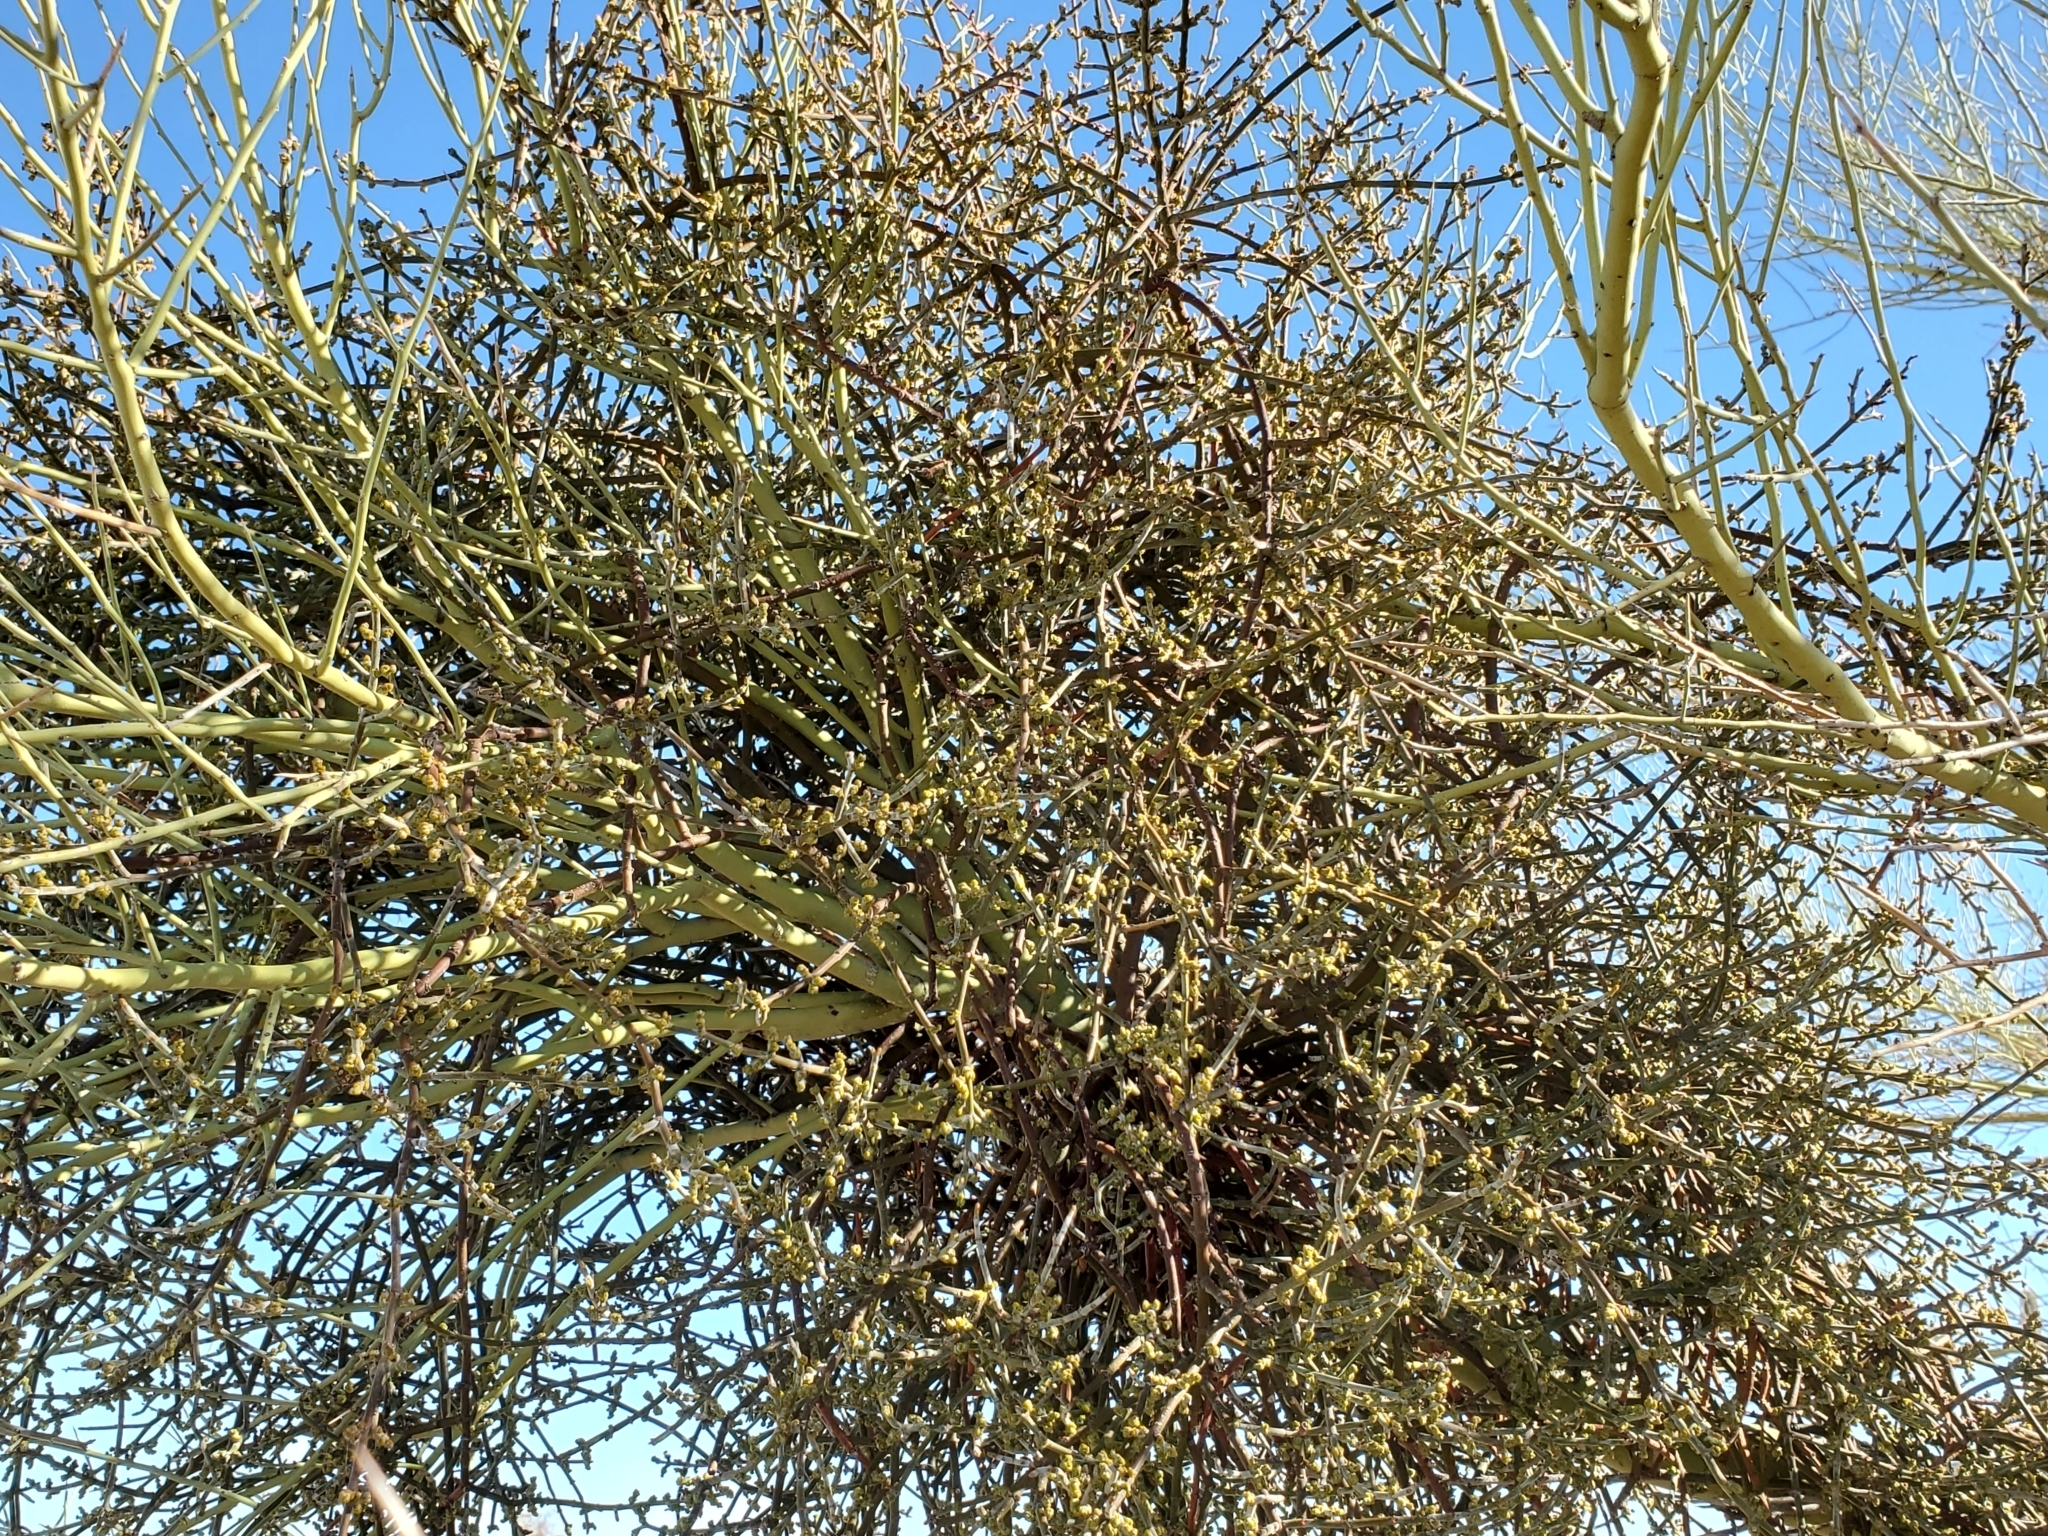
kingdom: Plantae
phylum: Tracheophyta
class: Magnoliopsida
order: Fabales
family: Fabaceae
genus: Parkinsonia
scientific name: Parkinsonia microphylla
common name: Yellow paloverde
